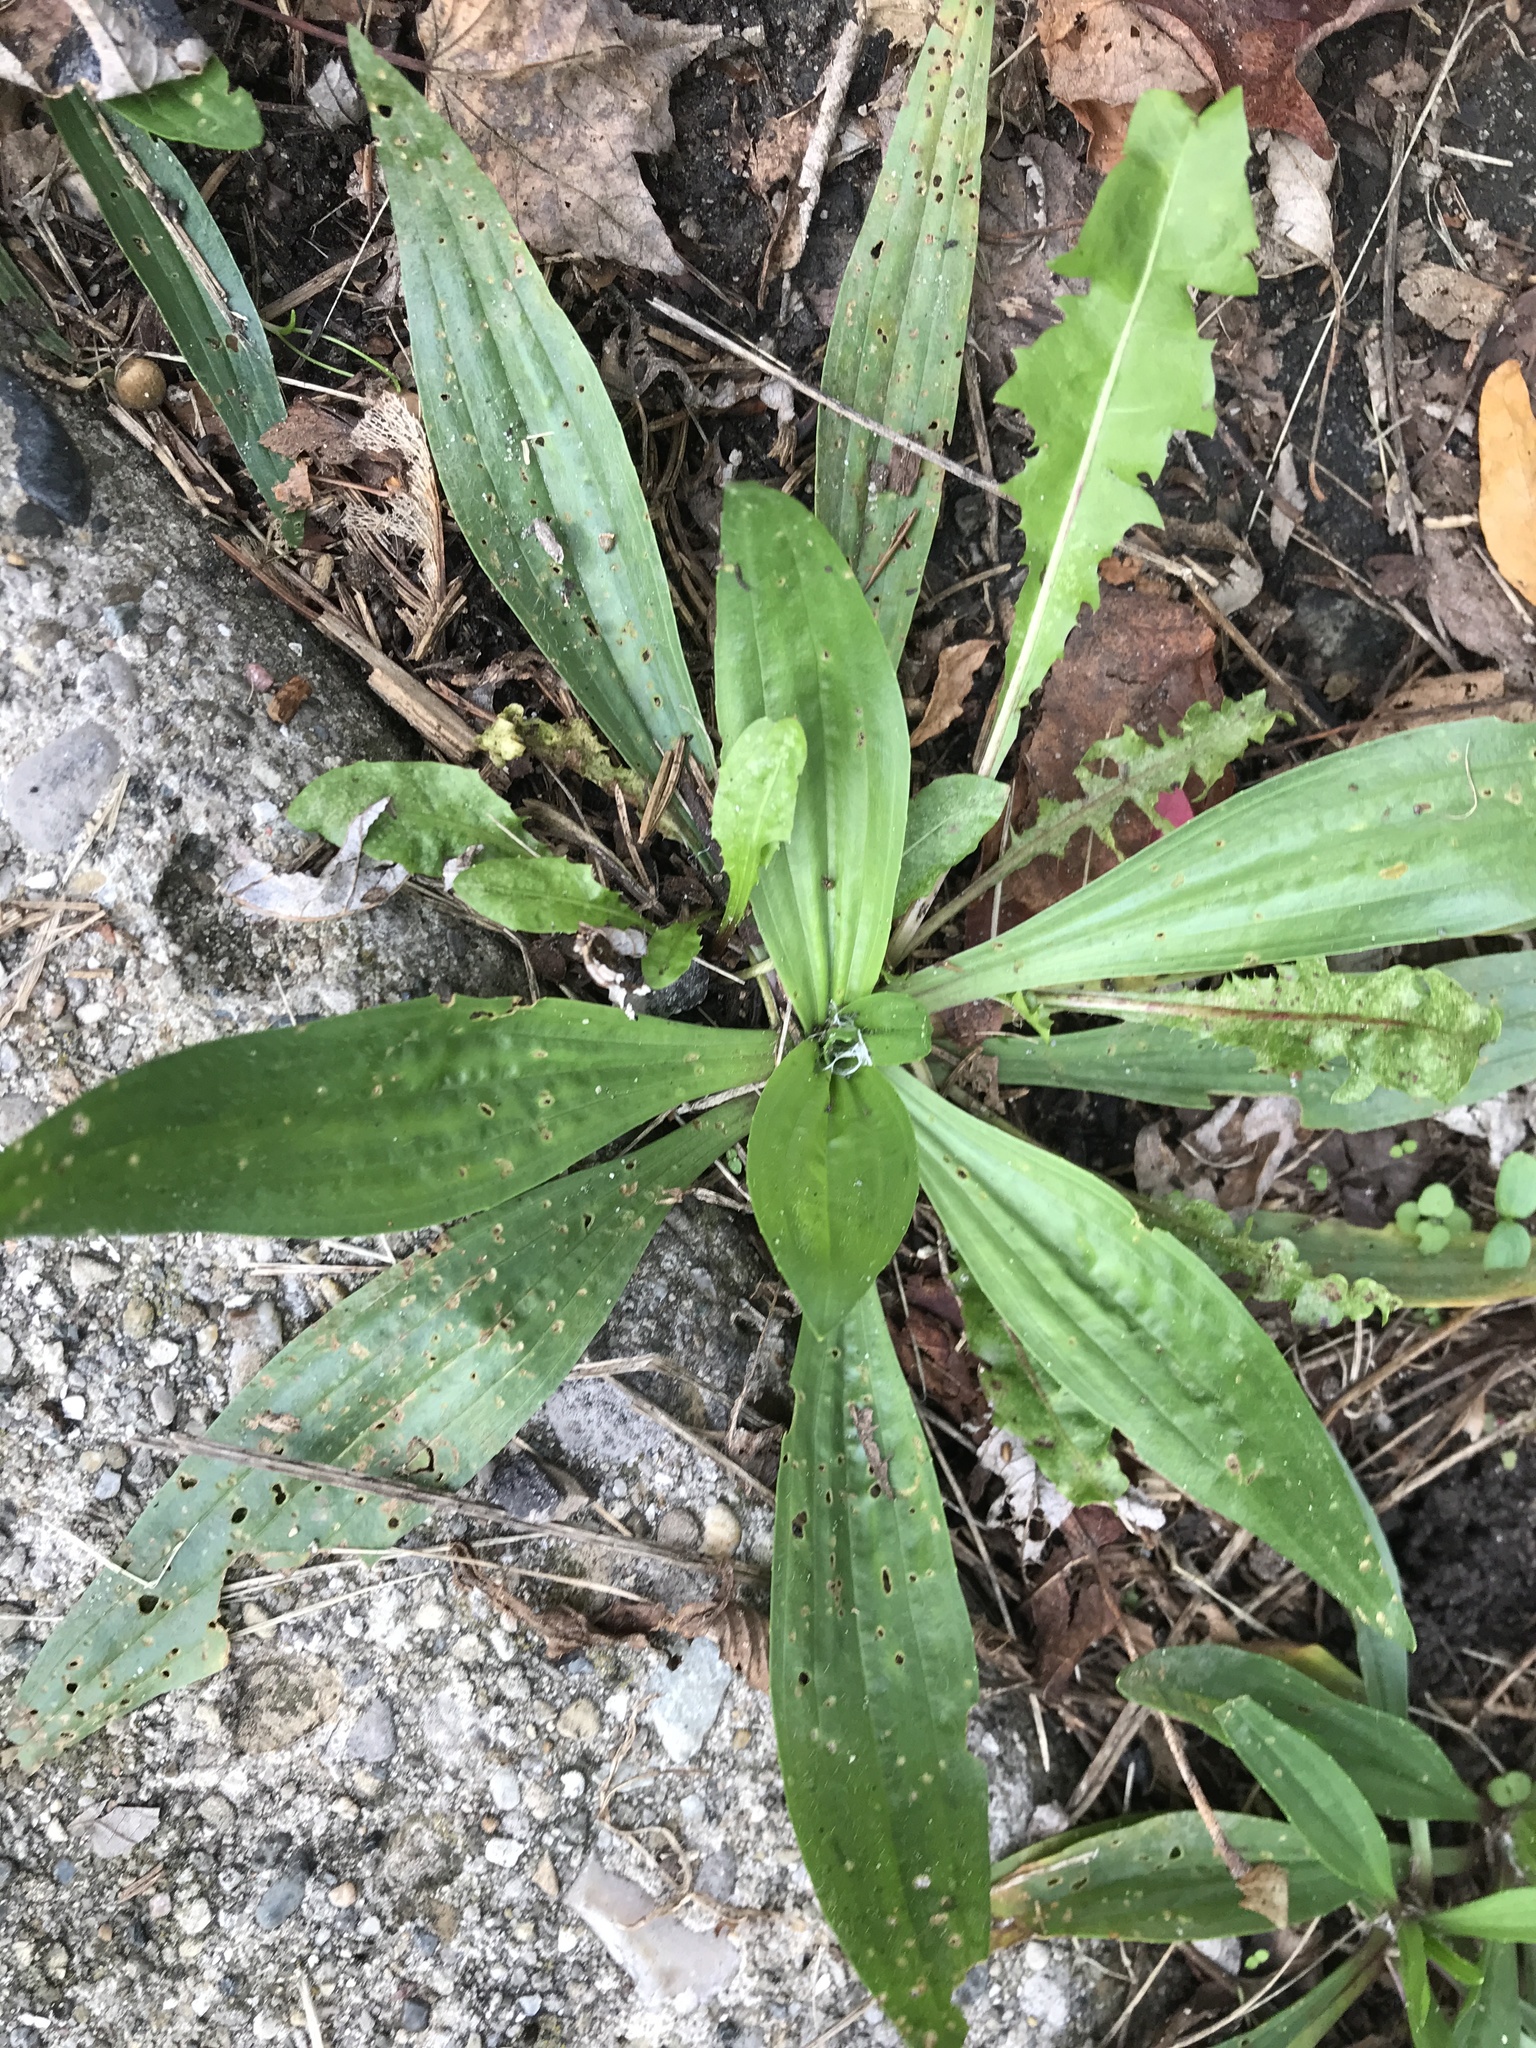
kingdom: Plantae
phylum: Tracheophyta
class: Magnoliopsida
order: Lamiales
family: Plantaginaceae
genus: Plantago
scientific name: Plantago lanceolata
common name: Ribwort plantain
